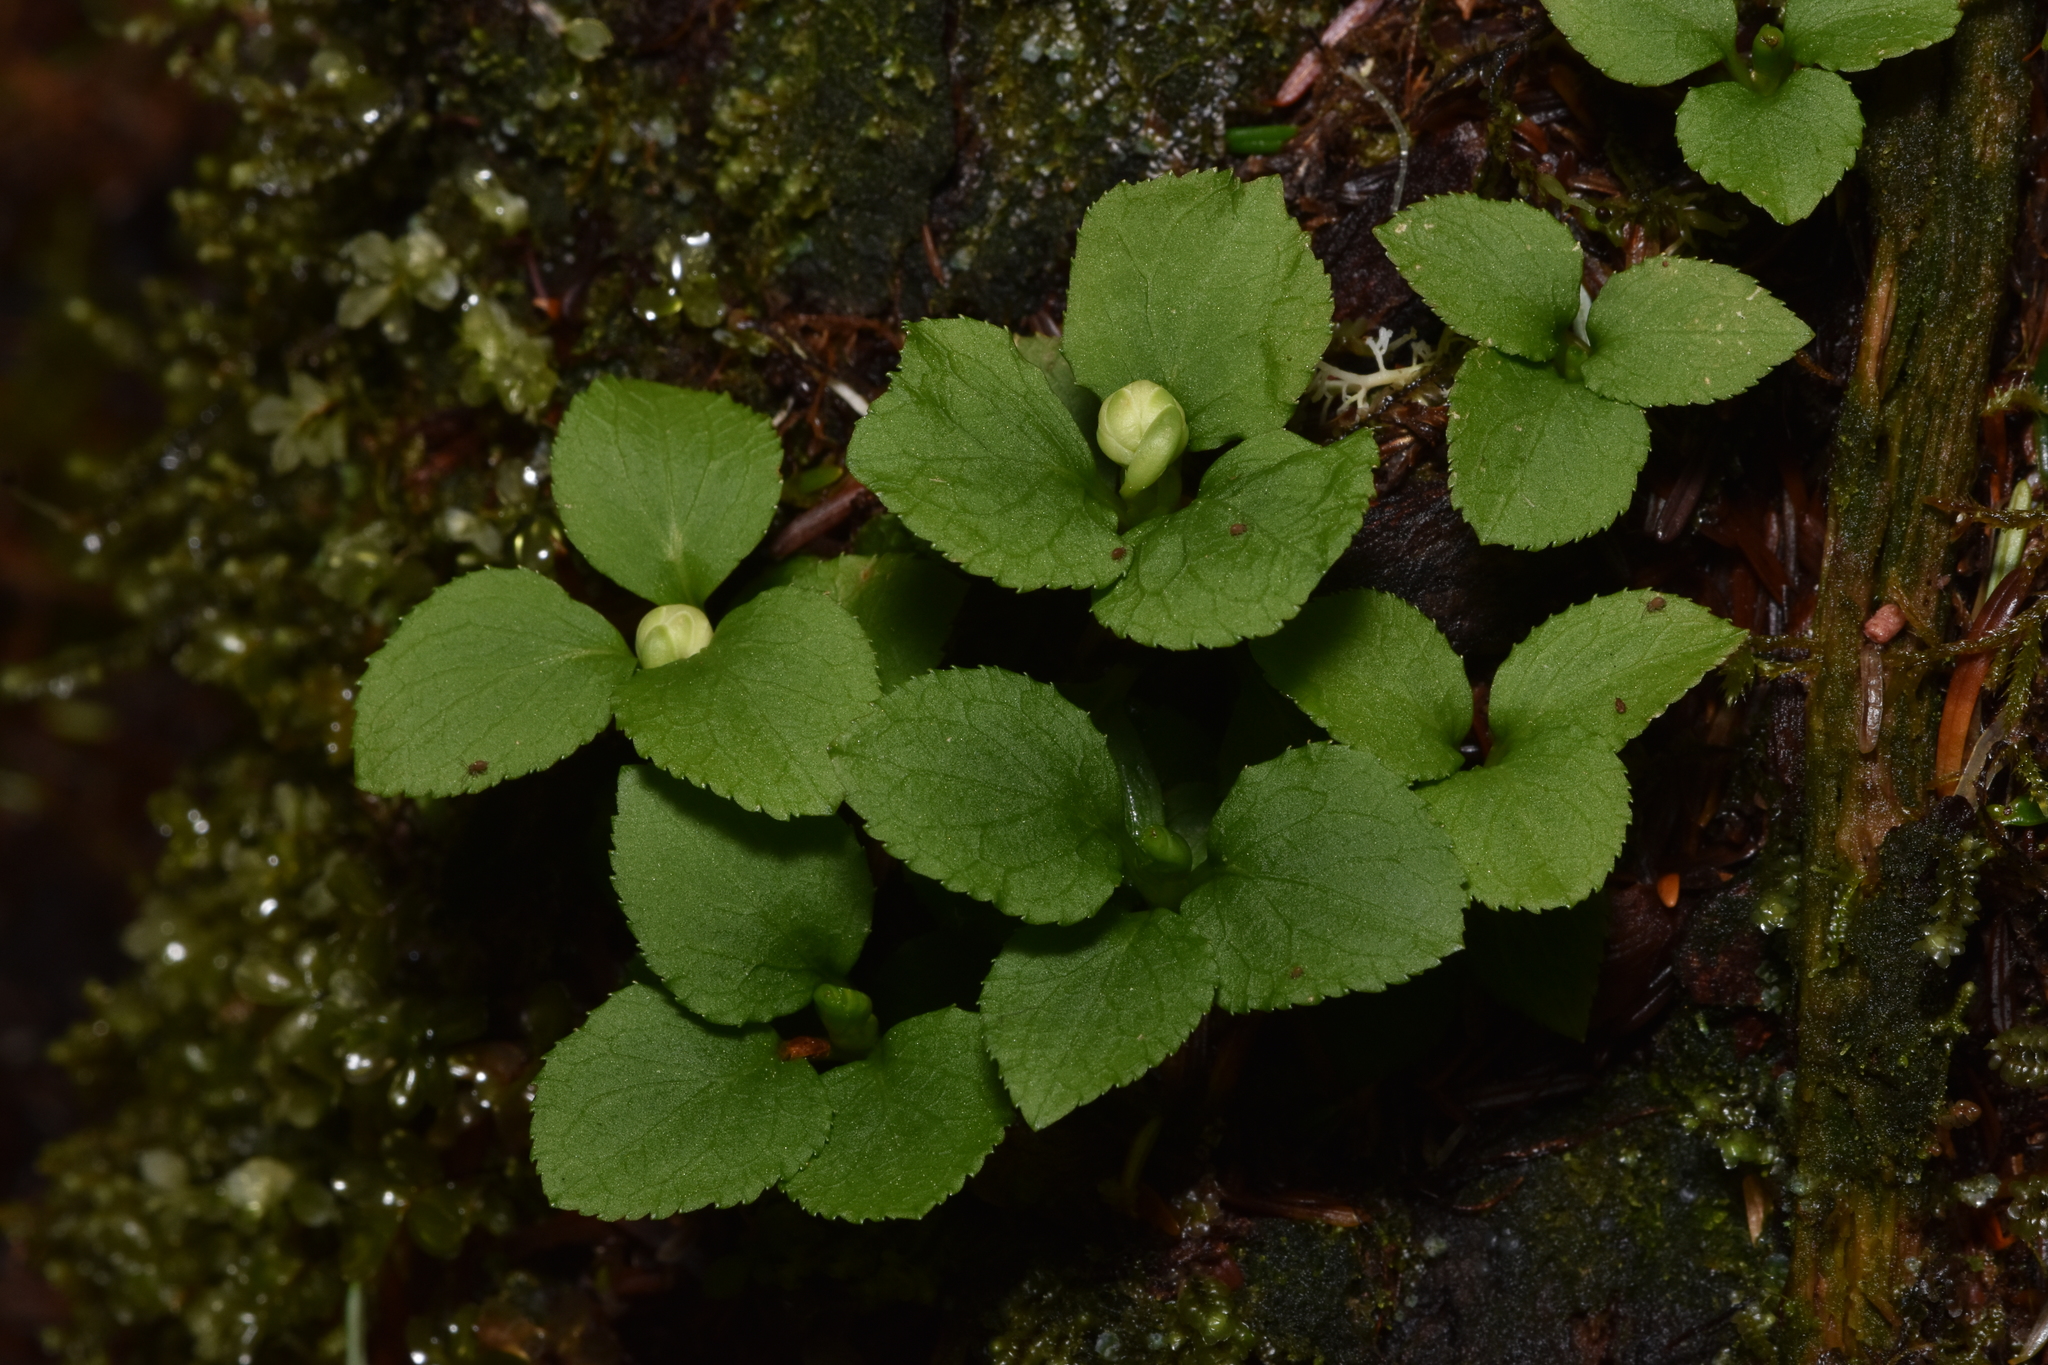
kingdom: Plantae
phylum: Tracheophyta
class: Magnoliopsida
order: Ericales
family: Ericaceae
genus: Moneses
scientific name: Moneses uniflora
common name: One-flowered wintergreen
